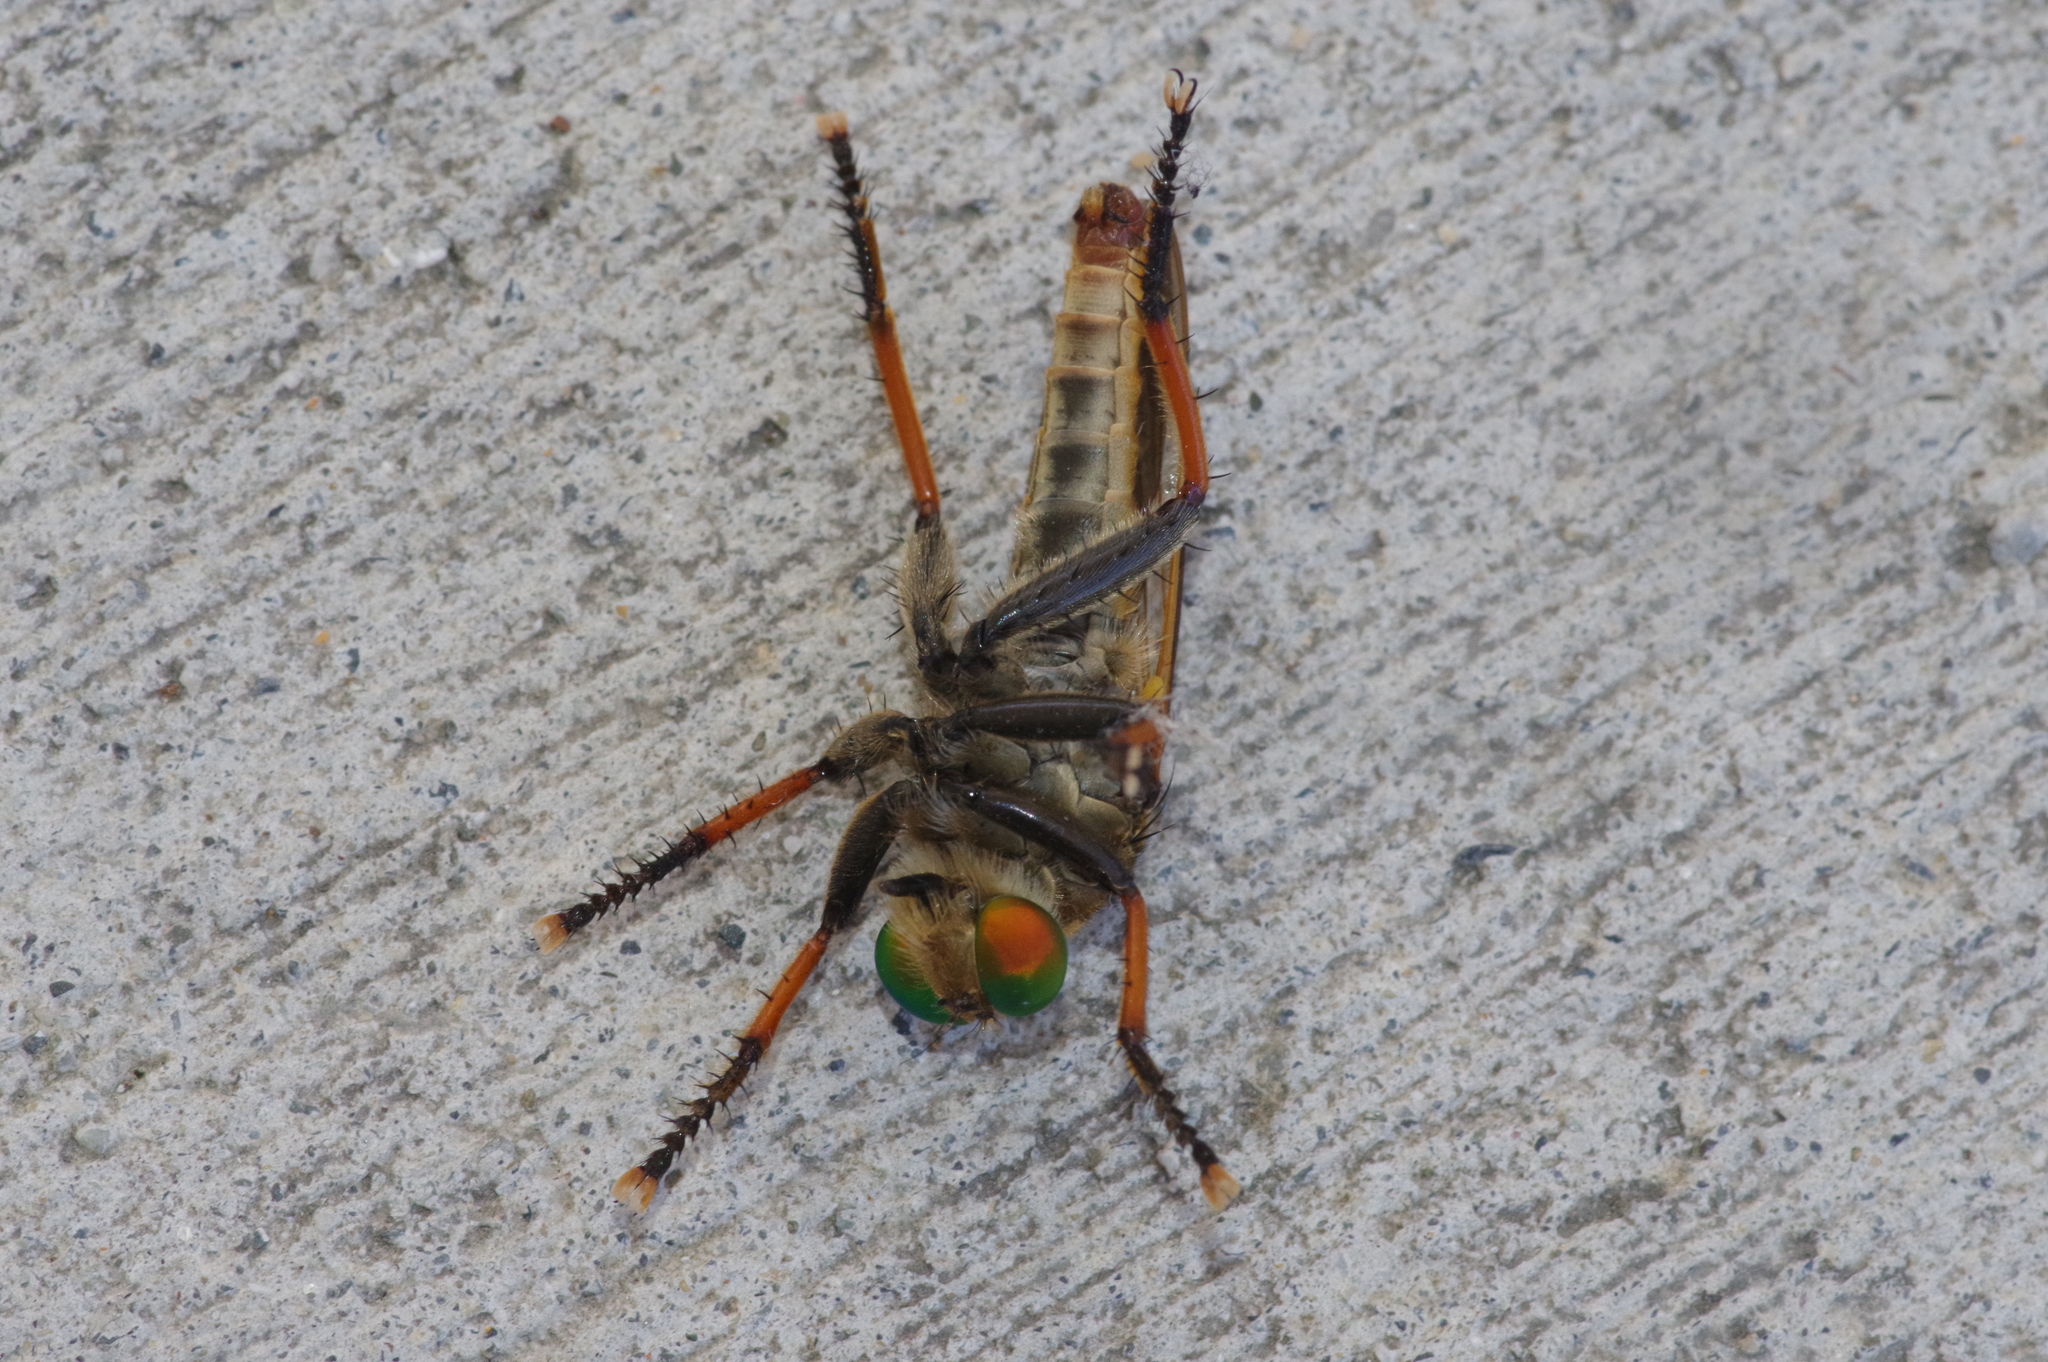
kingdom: Animalia
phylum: Arthropoda
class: Insecta
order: Diptera
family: Asilidae
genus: Cophinopoda
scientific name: Cophinopoda chinensis
